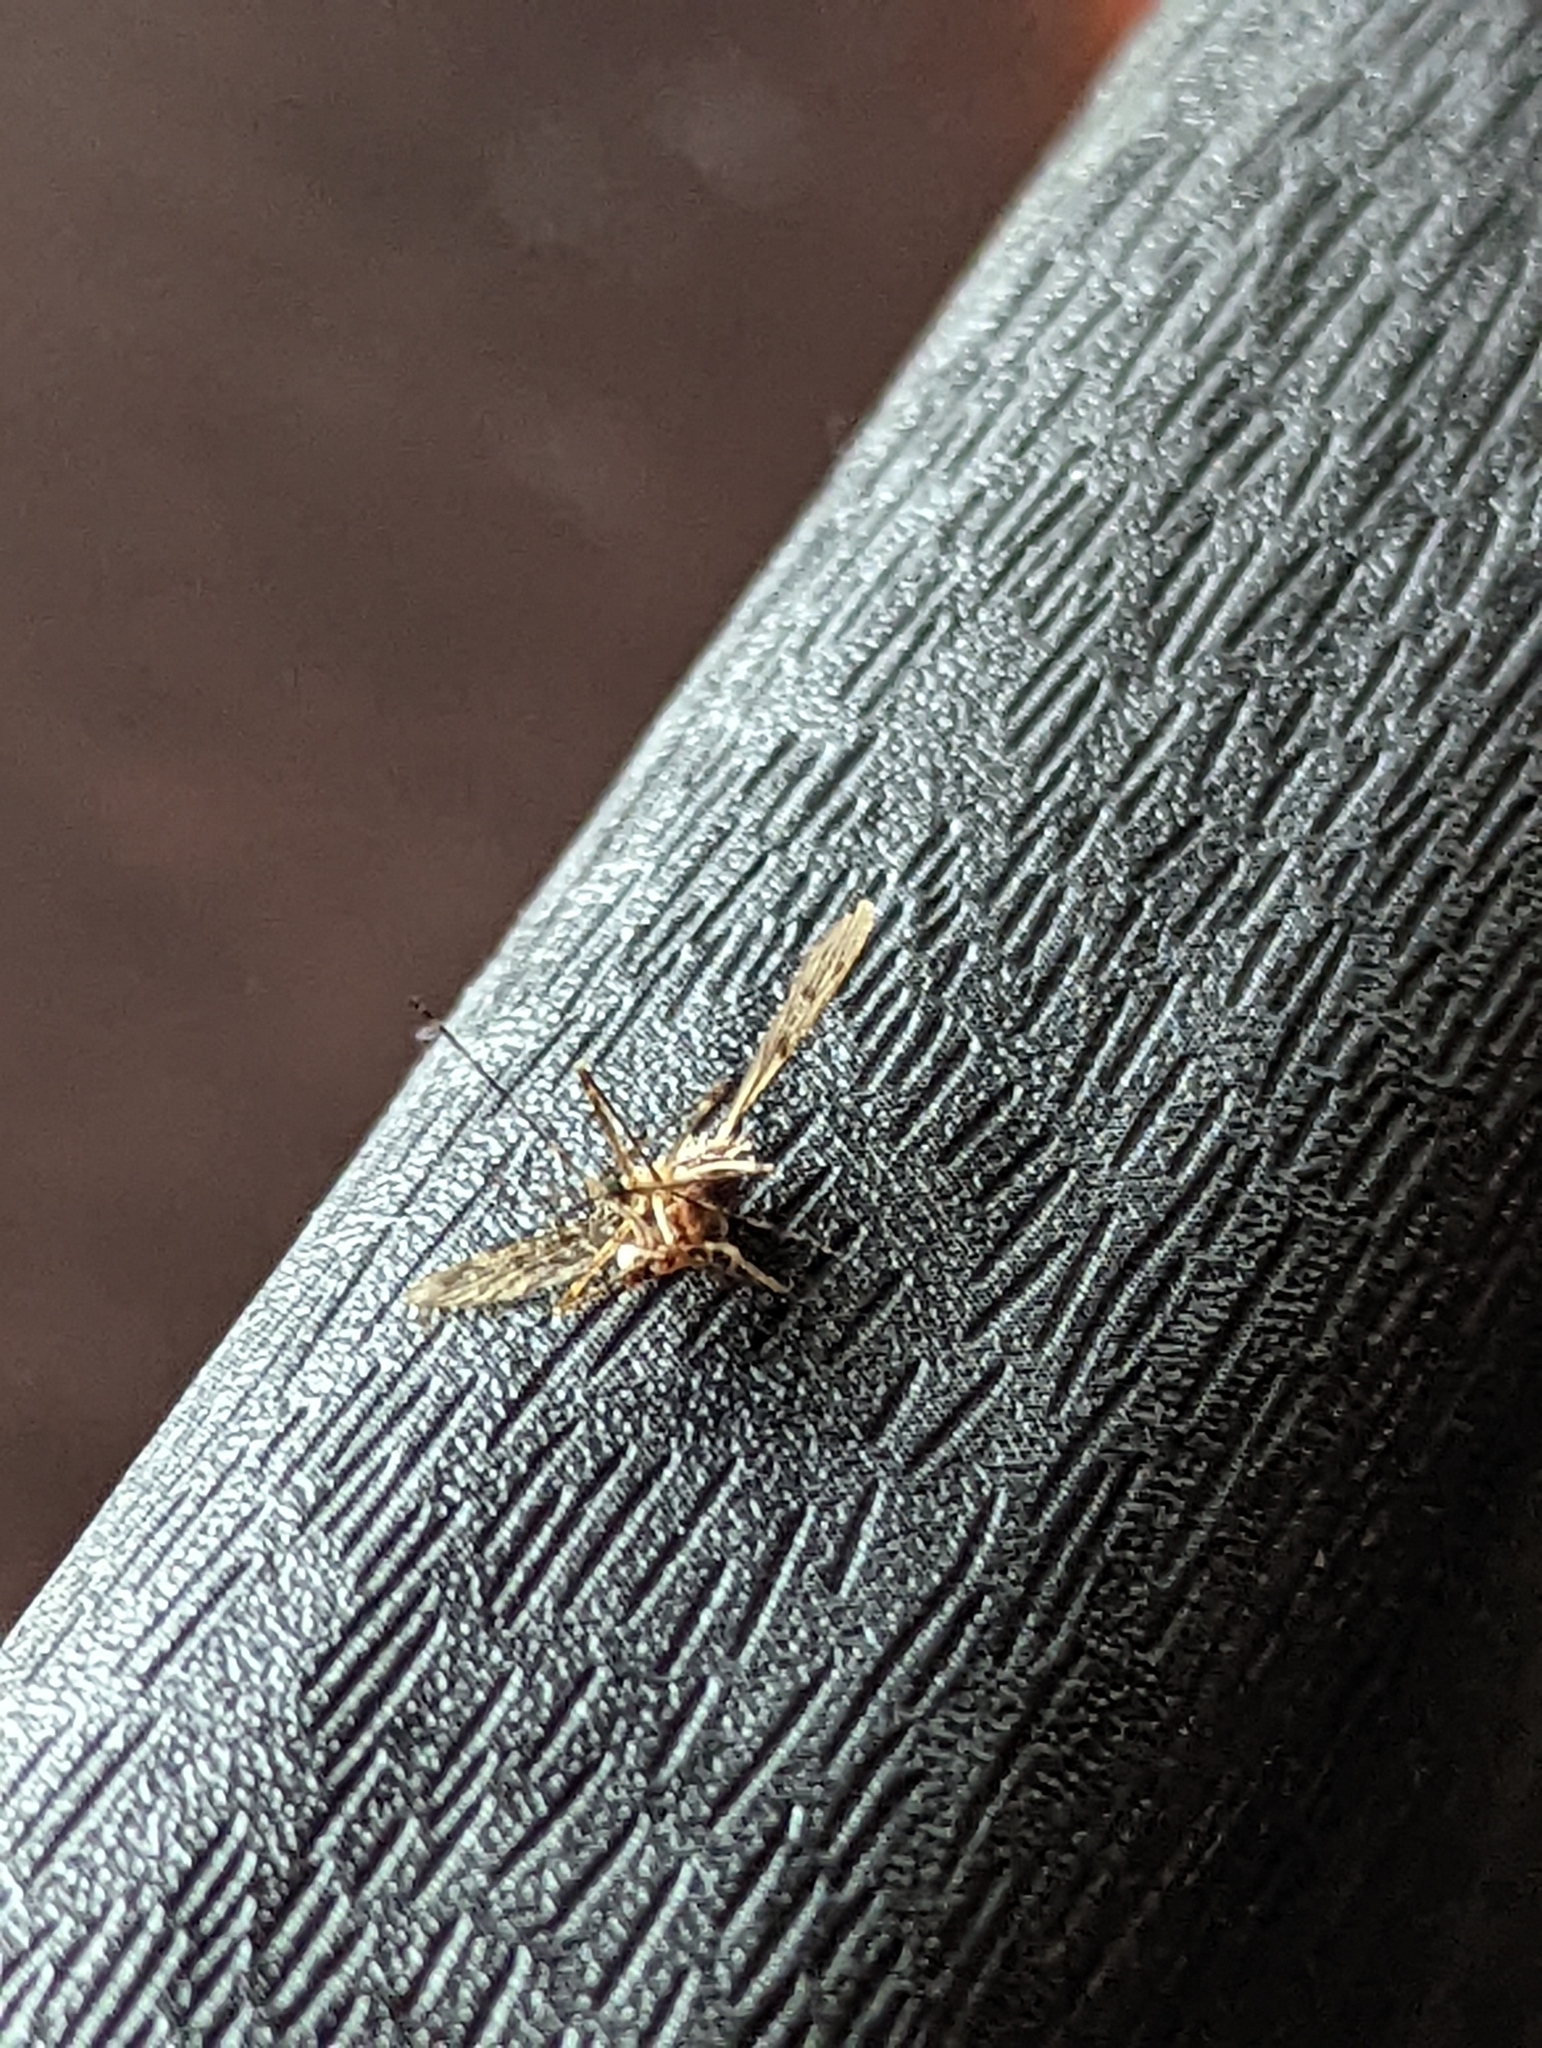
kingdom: Animalia
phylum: Arthropoda
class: Insecta
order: Diptera
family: Culicidae
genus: Culiseta
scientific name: Culiseta annulata
